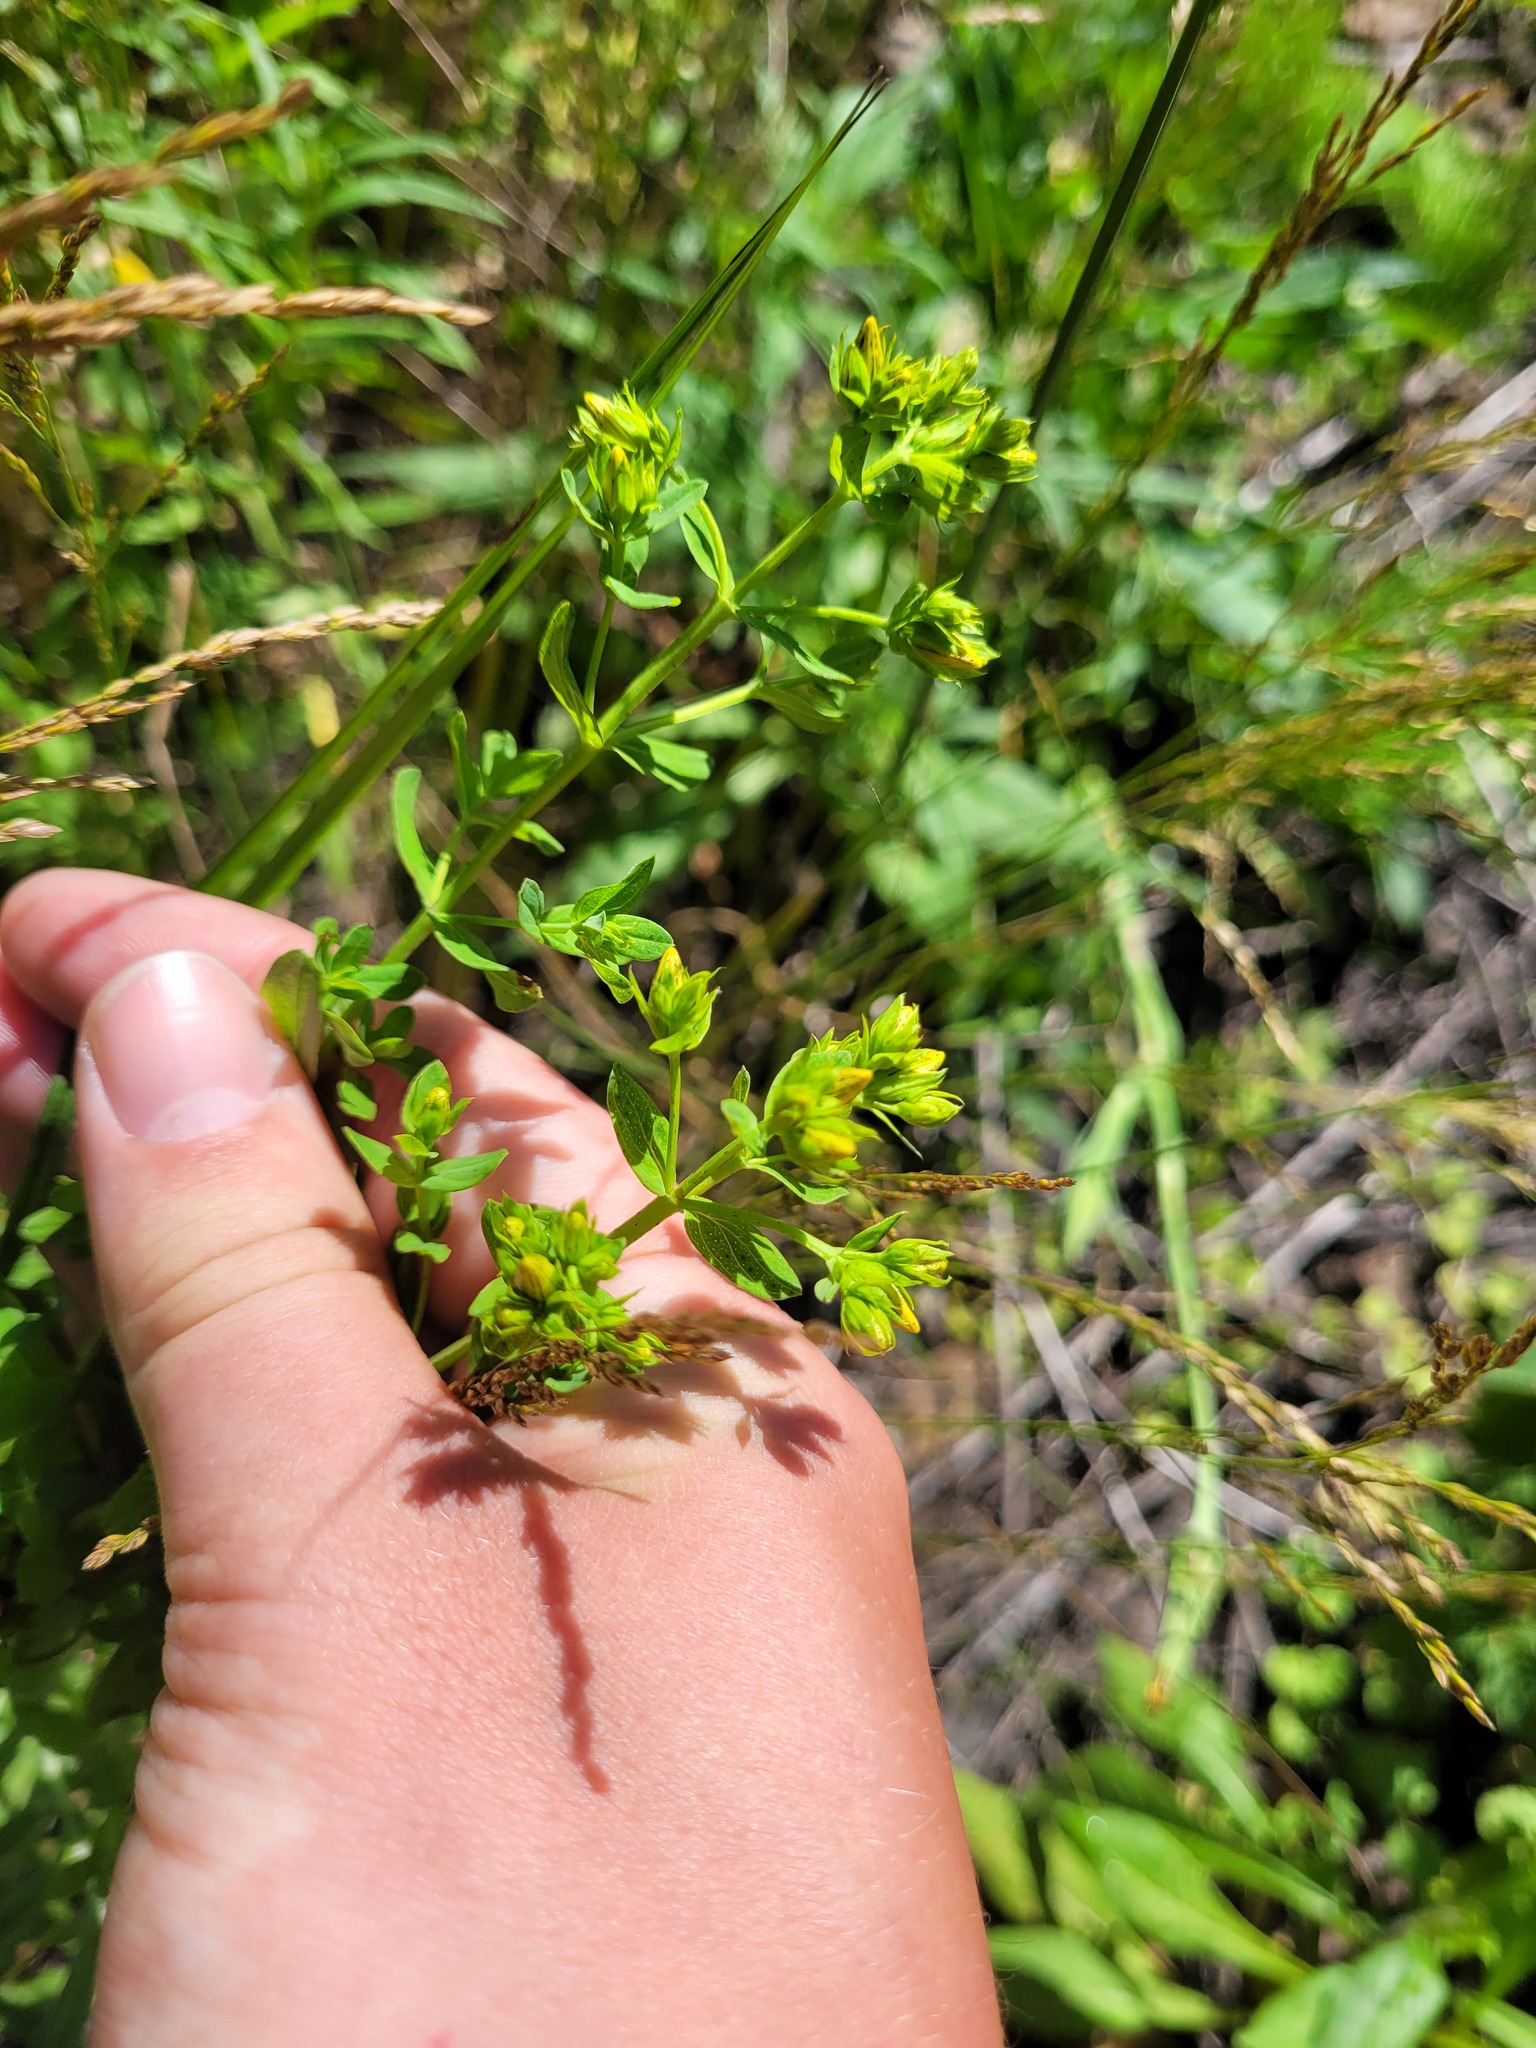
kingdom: Plantae
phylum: Tracheophyta
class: Magnoliopsida
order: Malpighiales
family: Hypericaceae
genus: Hypericum
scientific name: Hypericum perforatum
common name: Common st. johnswort
